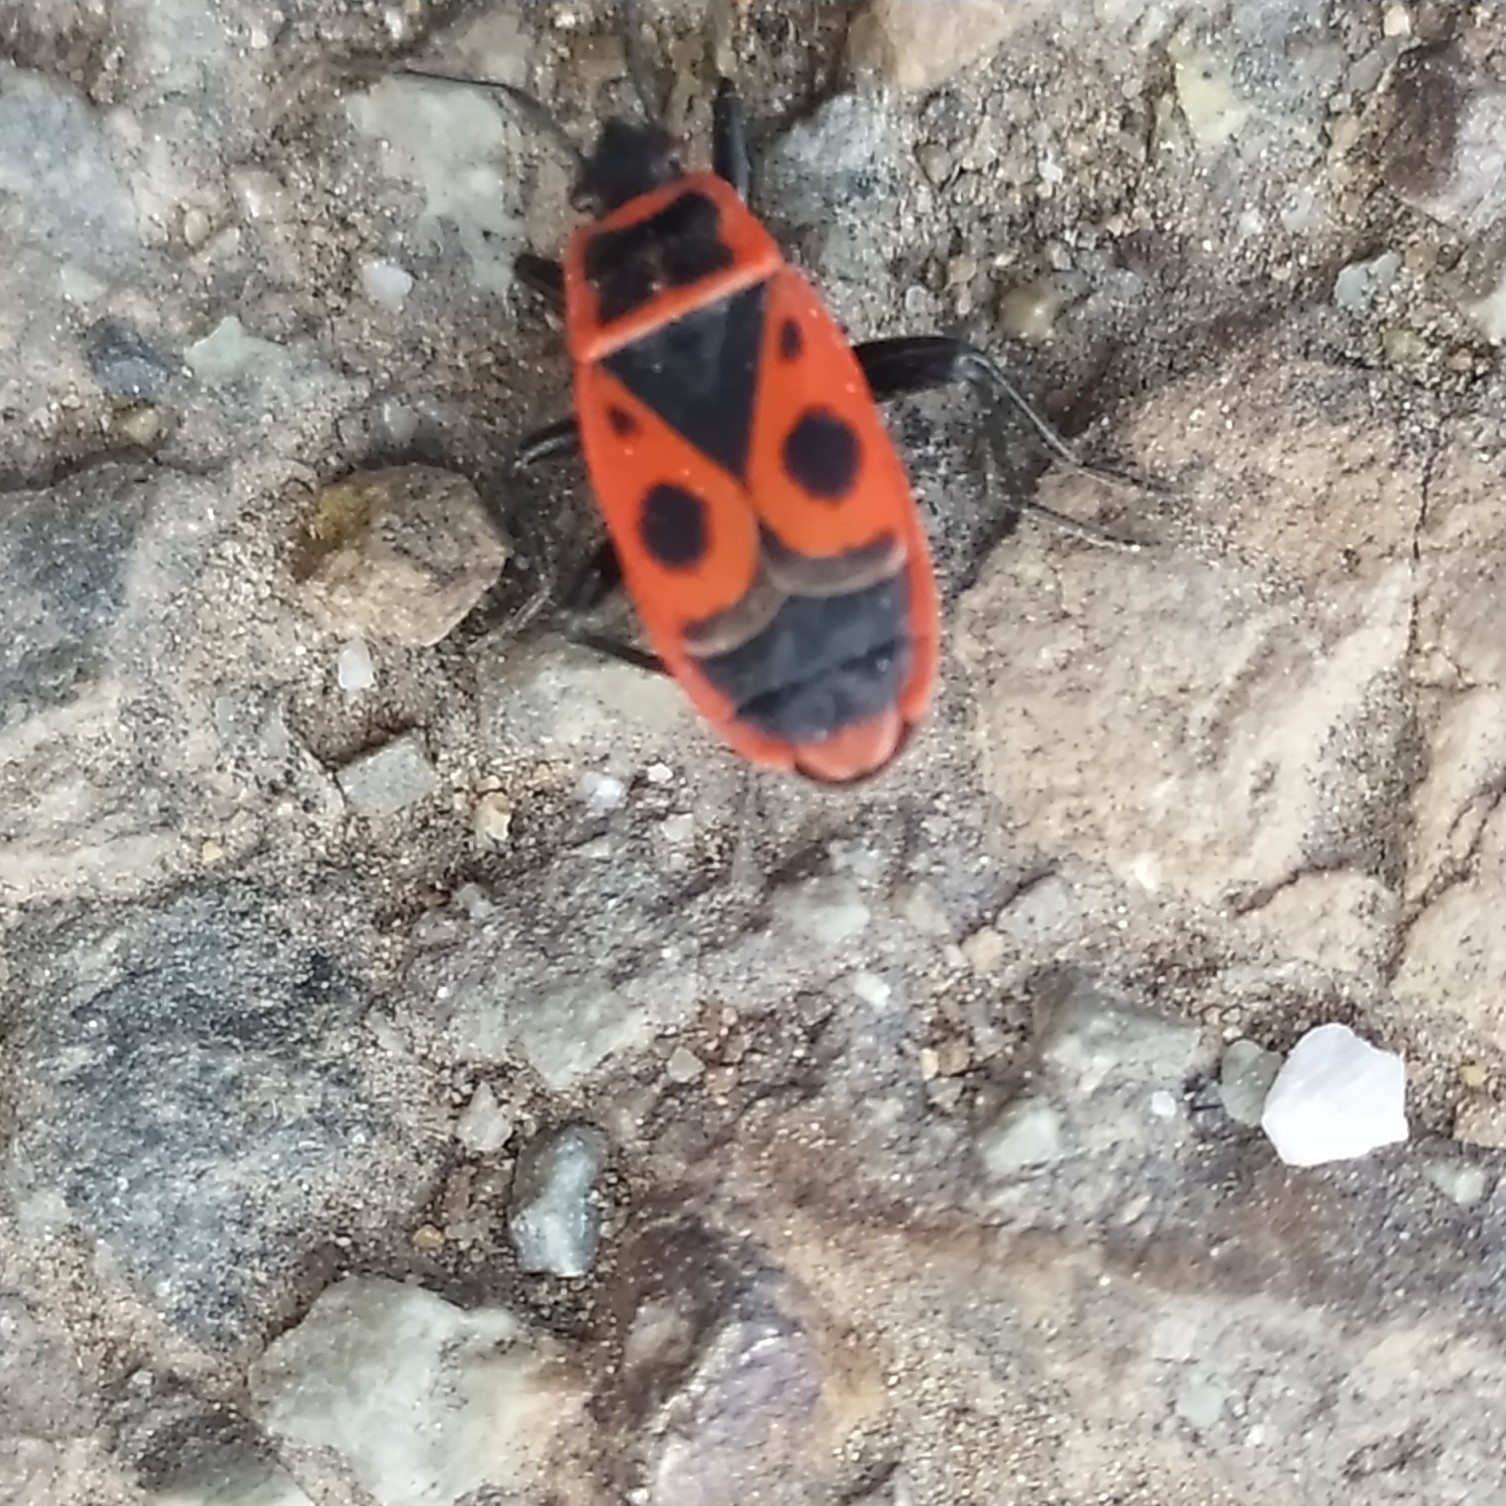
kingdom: Animalia
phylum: Arthropoda
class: Insecta
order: Hemiptera
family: Pyrrhocoridae
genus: Pyrrhocoris
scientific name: Pyrrhocoris apterus
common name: Firebug
